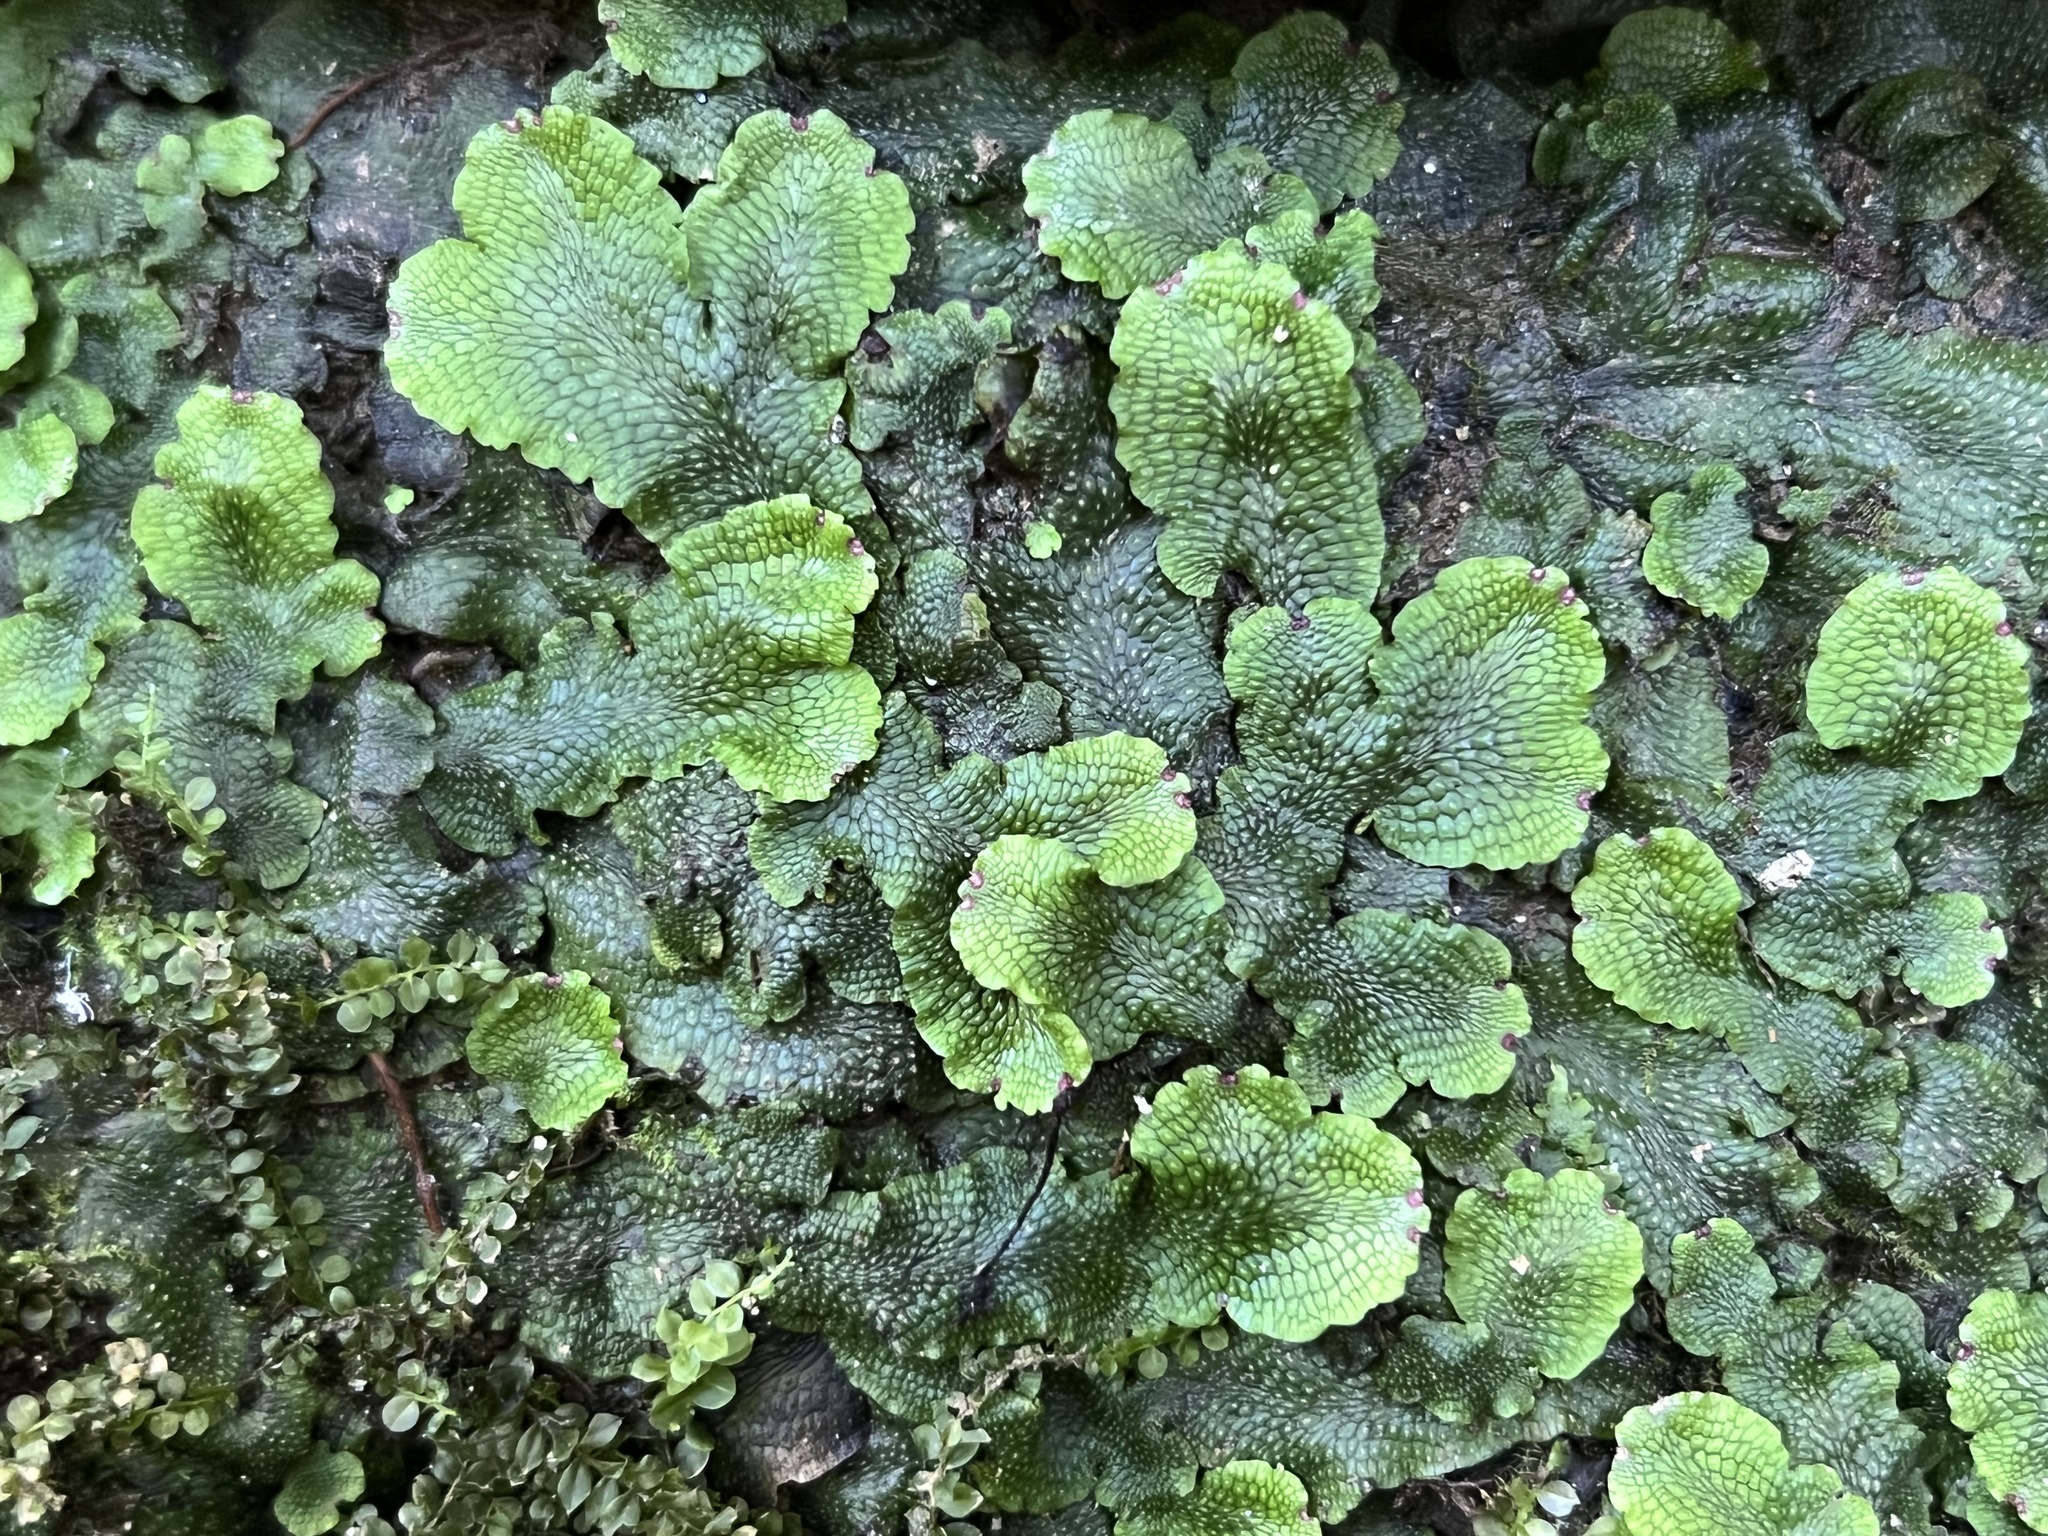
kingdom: Plantae
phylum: Marchantiophyta
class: Marchantiopsida
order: Marchantiales
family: Conocephalaceae
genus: Conocephalum
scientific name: Conocephalum salebrosum
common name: Cat-tongue liverwort
